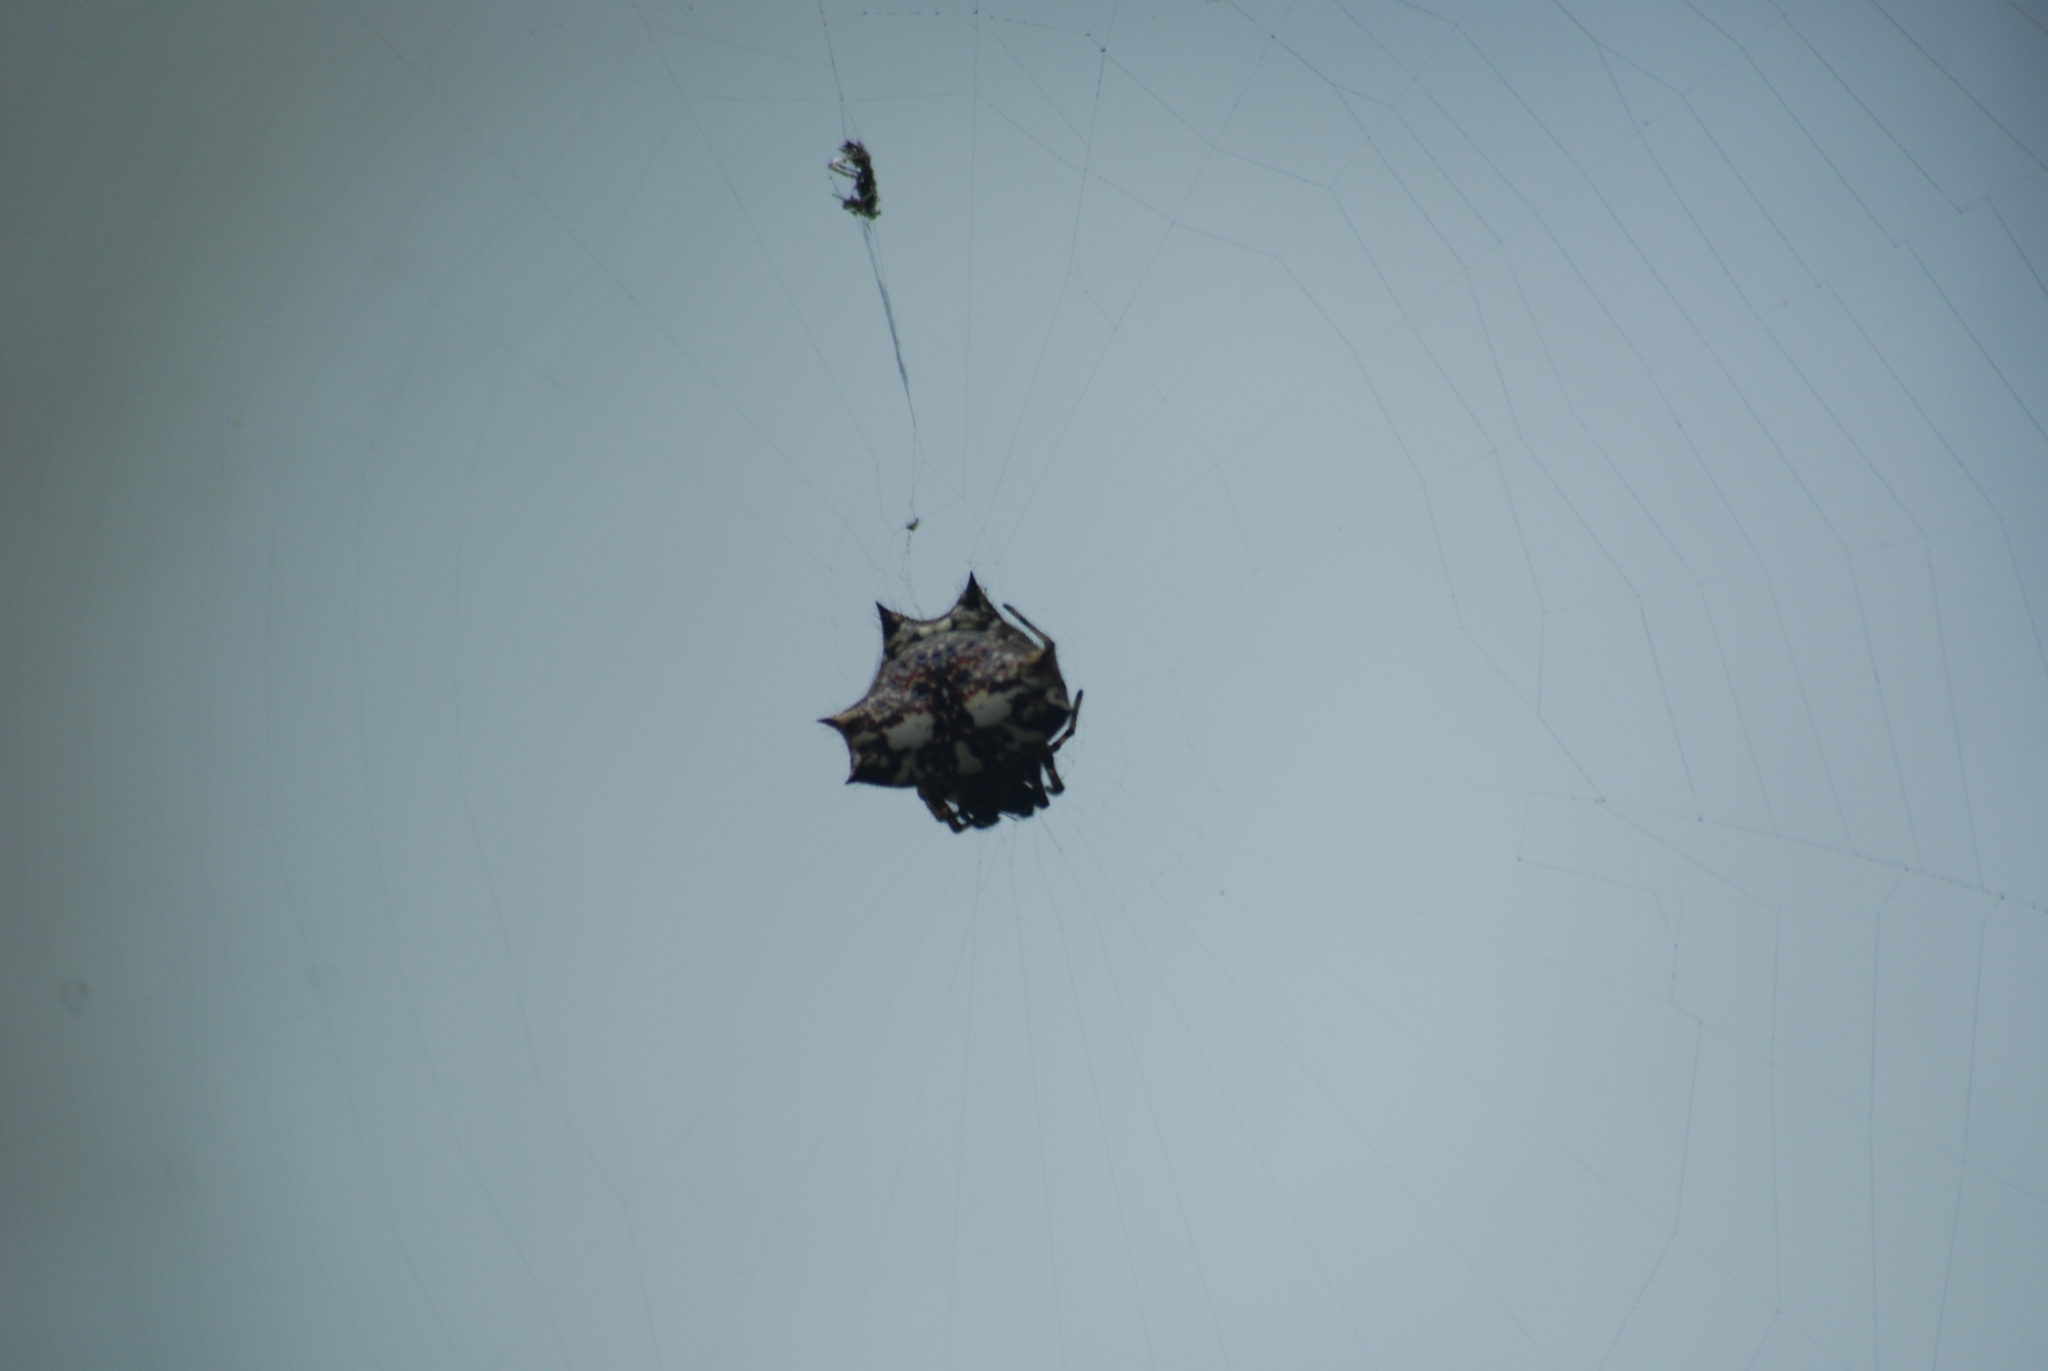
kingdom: Animalia
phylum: Arthropoda
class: Arachnida
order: Araneae
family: Araneidae
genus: Gasteracantha
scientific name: Gasteracantha kuhli
